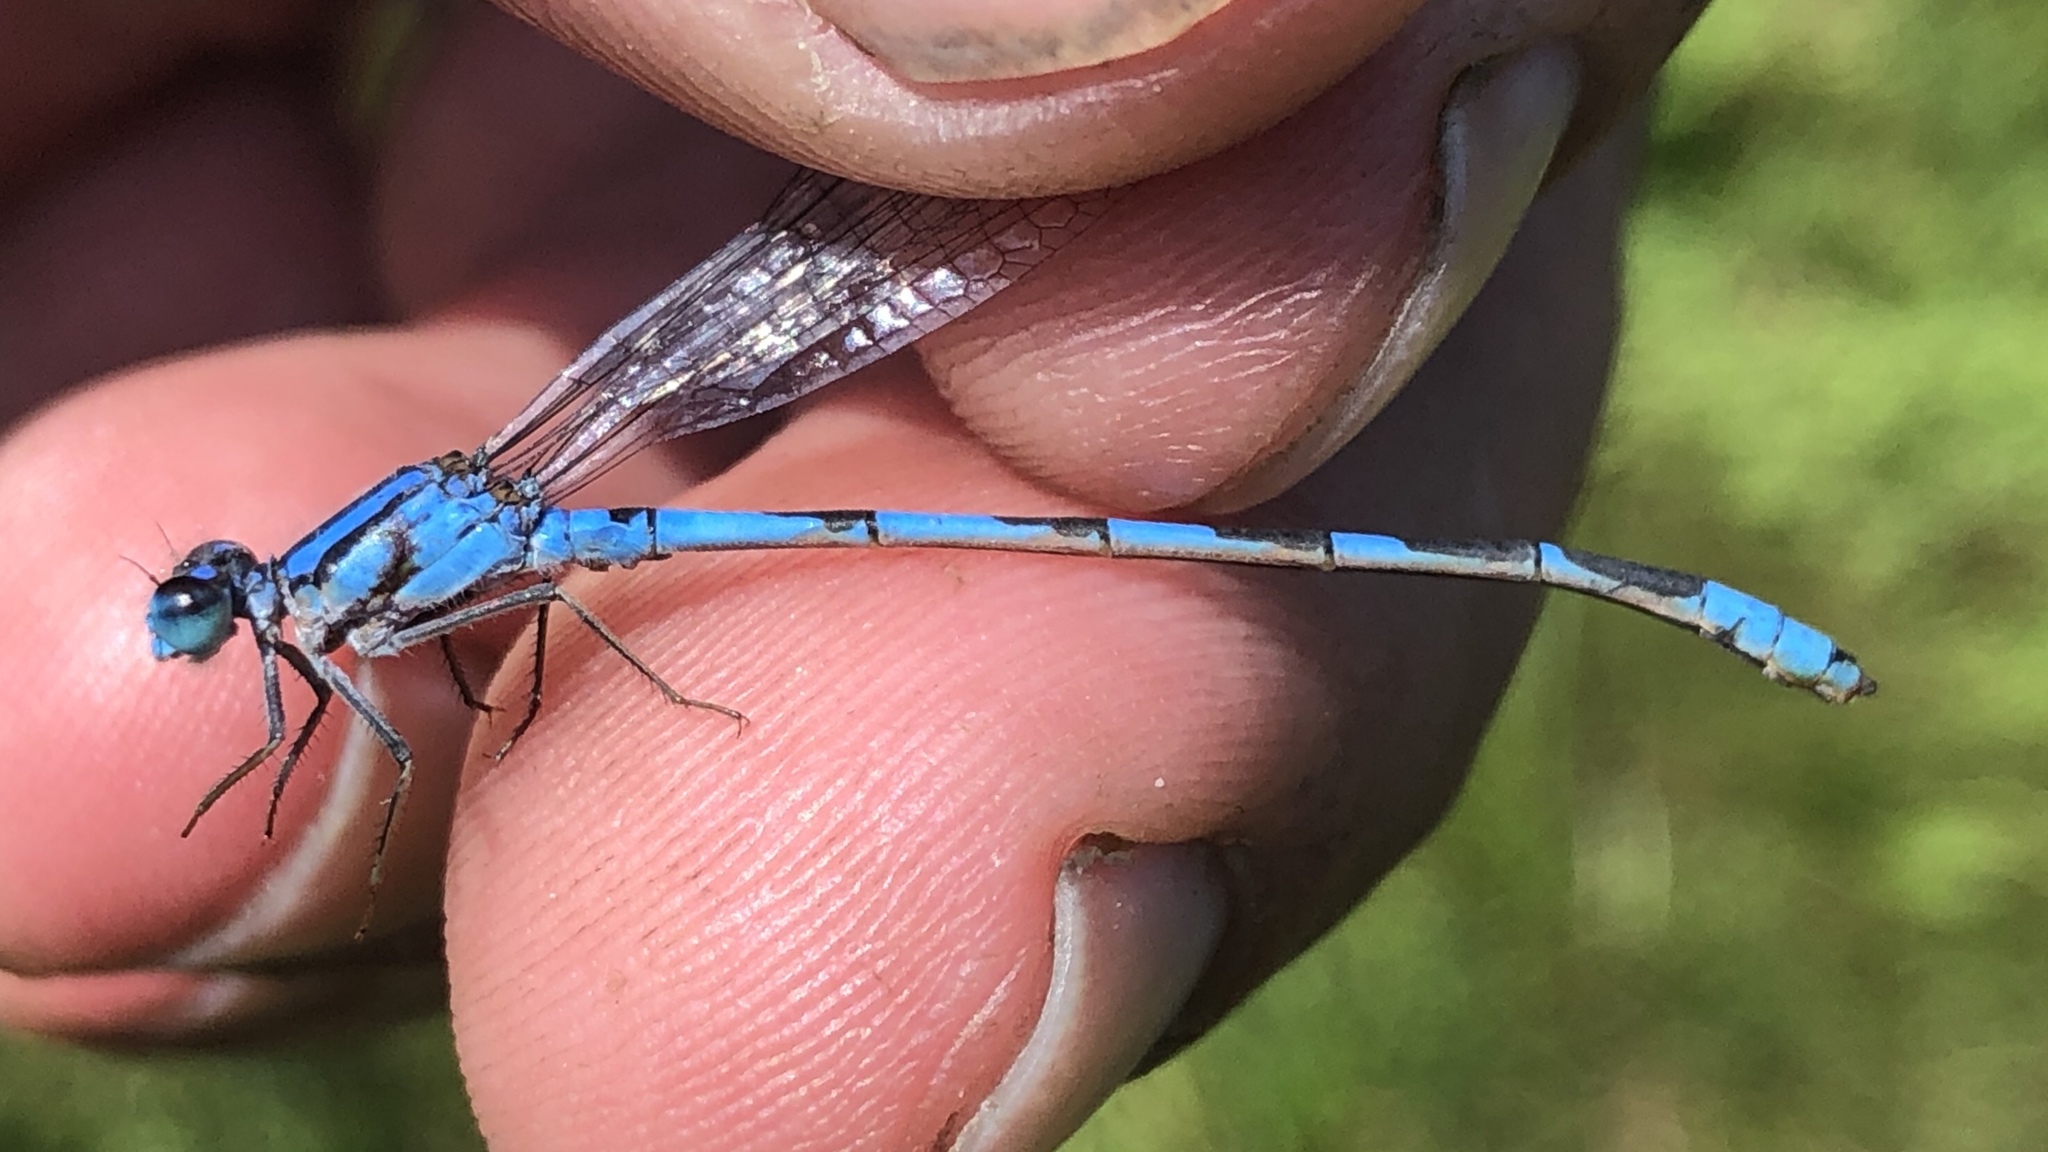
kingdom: Animalia
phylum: Arthropoda
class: Insecta
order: Odonata
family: Coenagrionidae
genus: Enallagma
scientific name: Enallagma civile
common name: Damselfly
